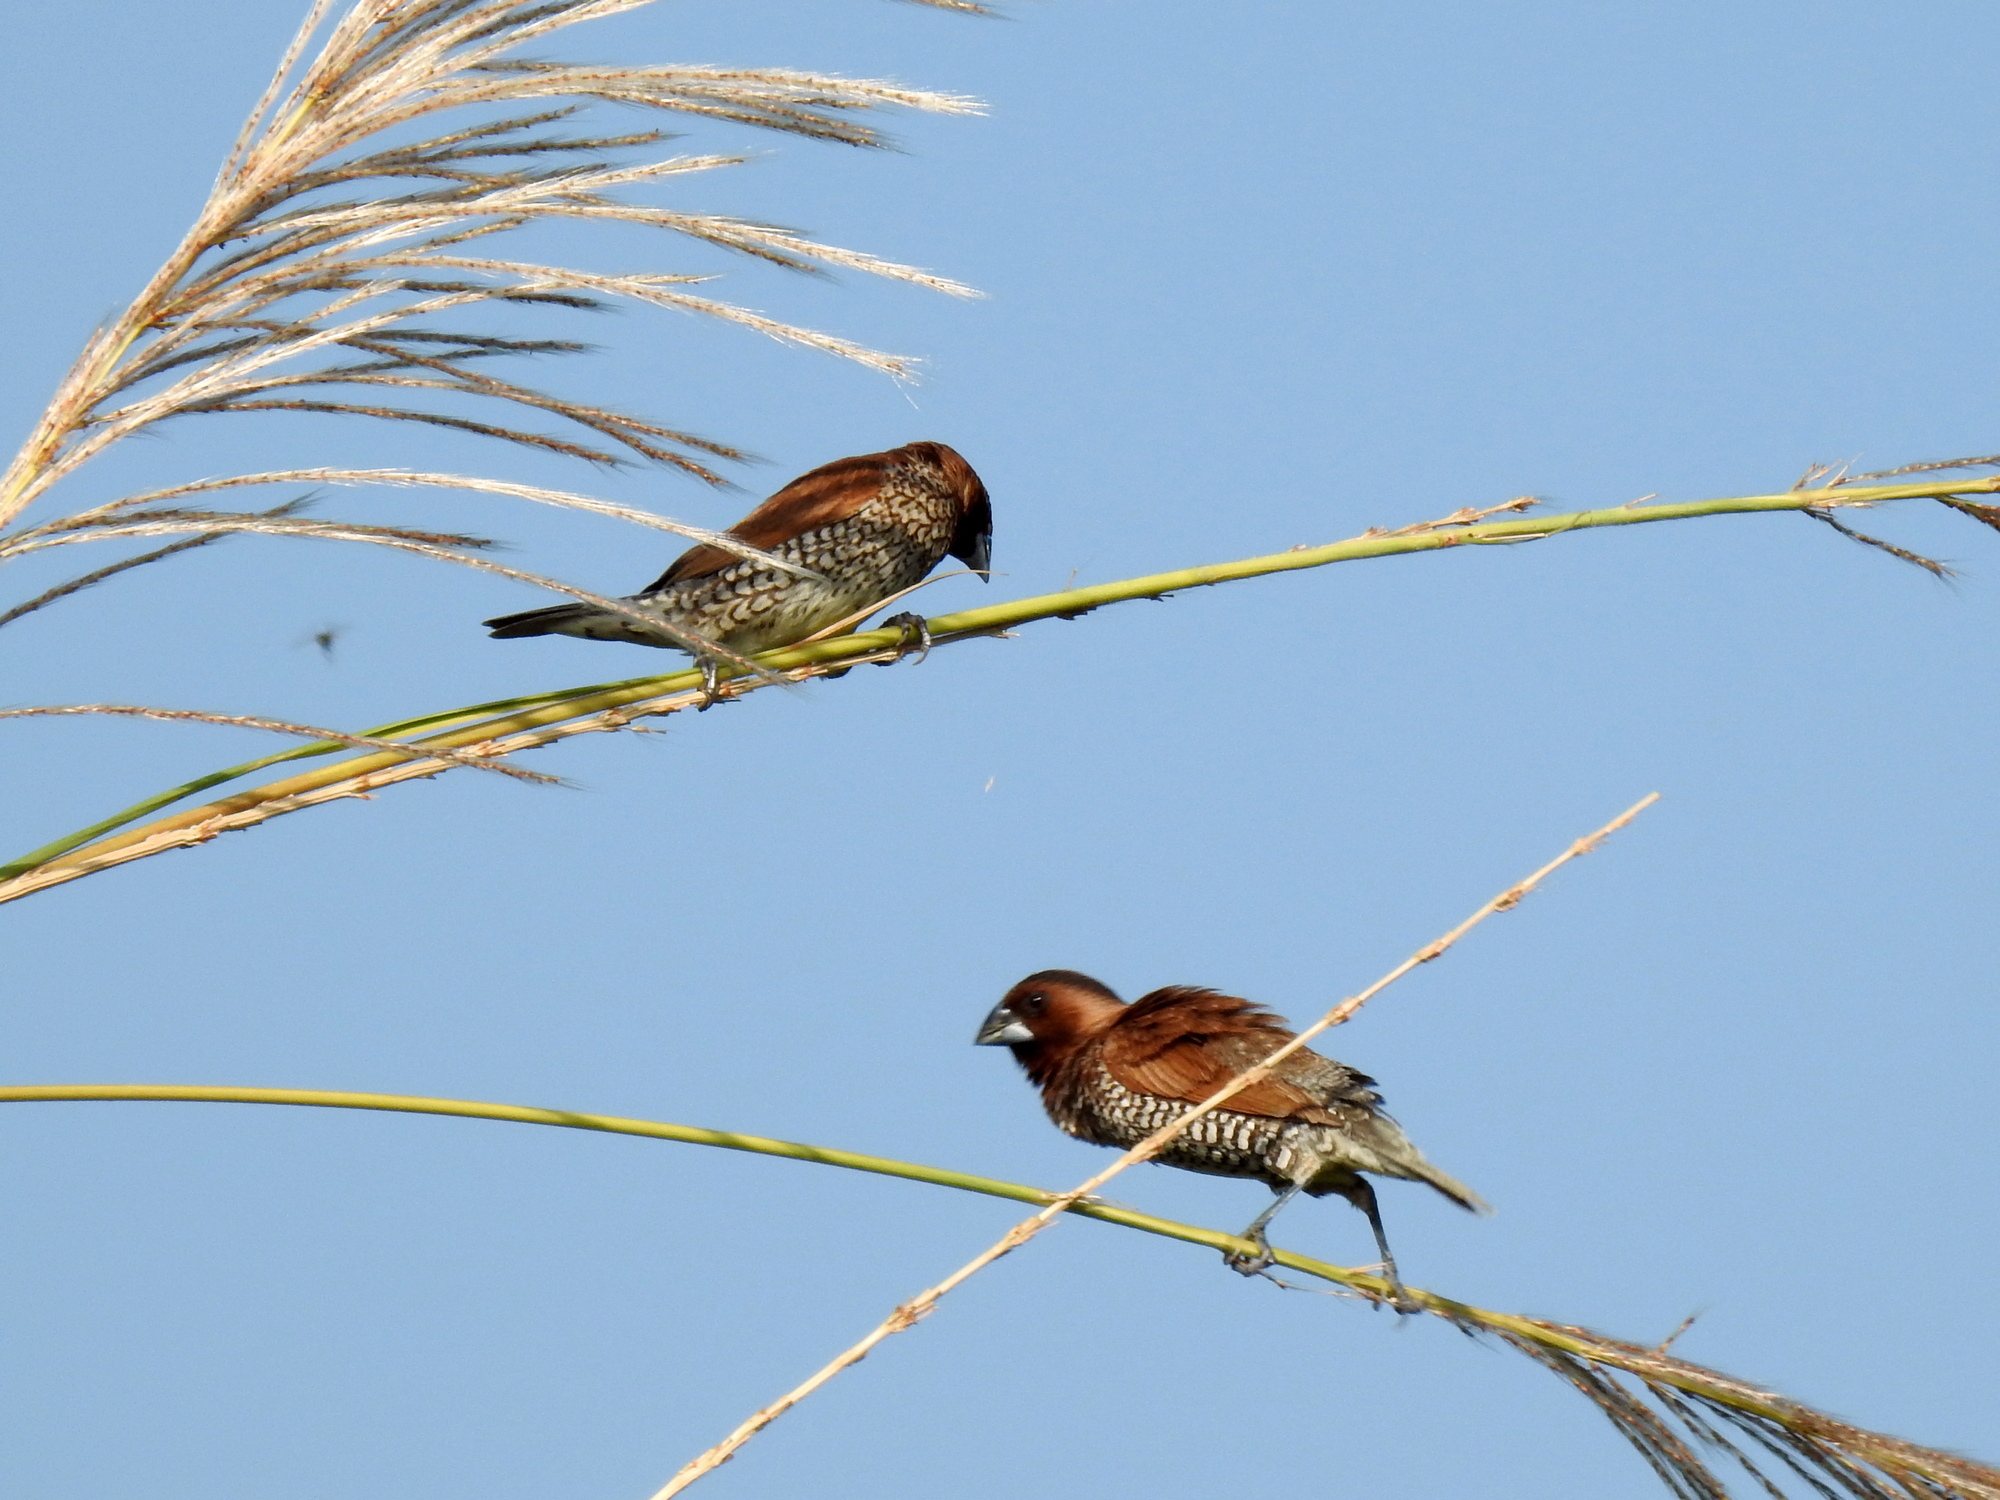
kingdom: Animalia
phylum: Chordata
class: Aves
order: Passeriformes
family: Estrildidae
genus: Lonchura
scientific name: Lonchura punctulata
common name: Scaly-breasted munia
